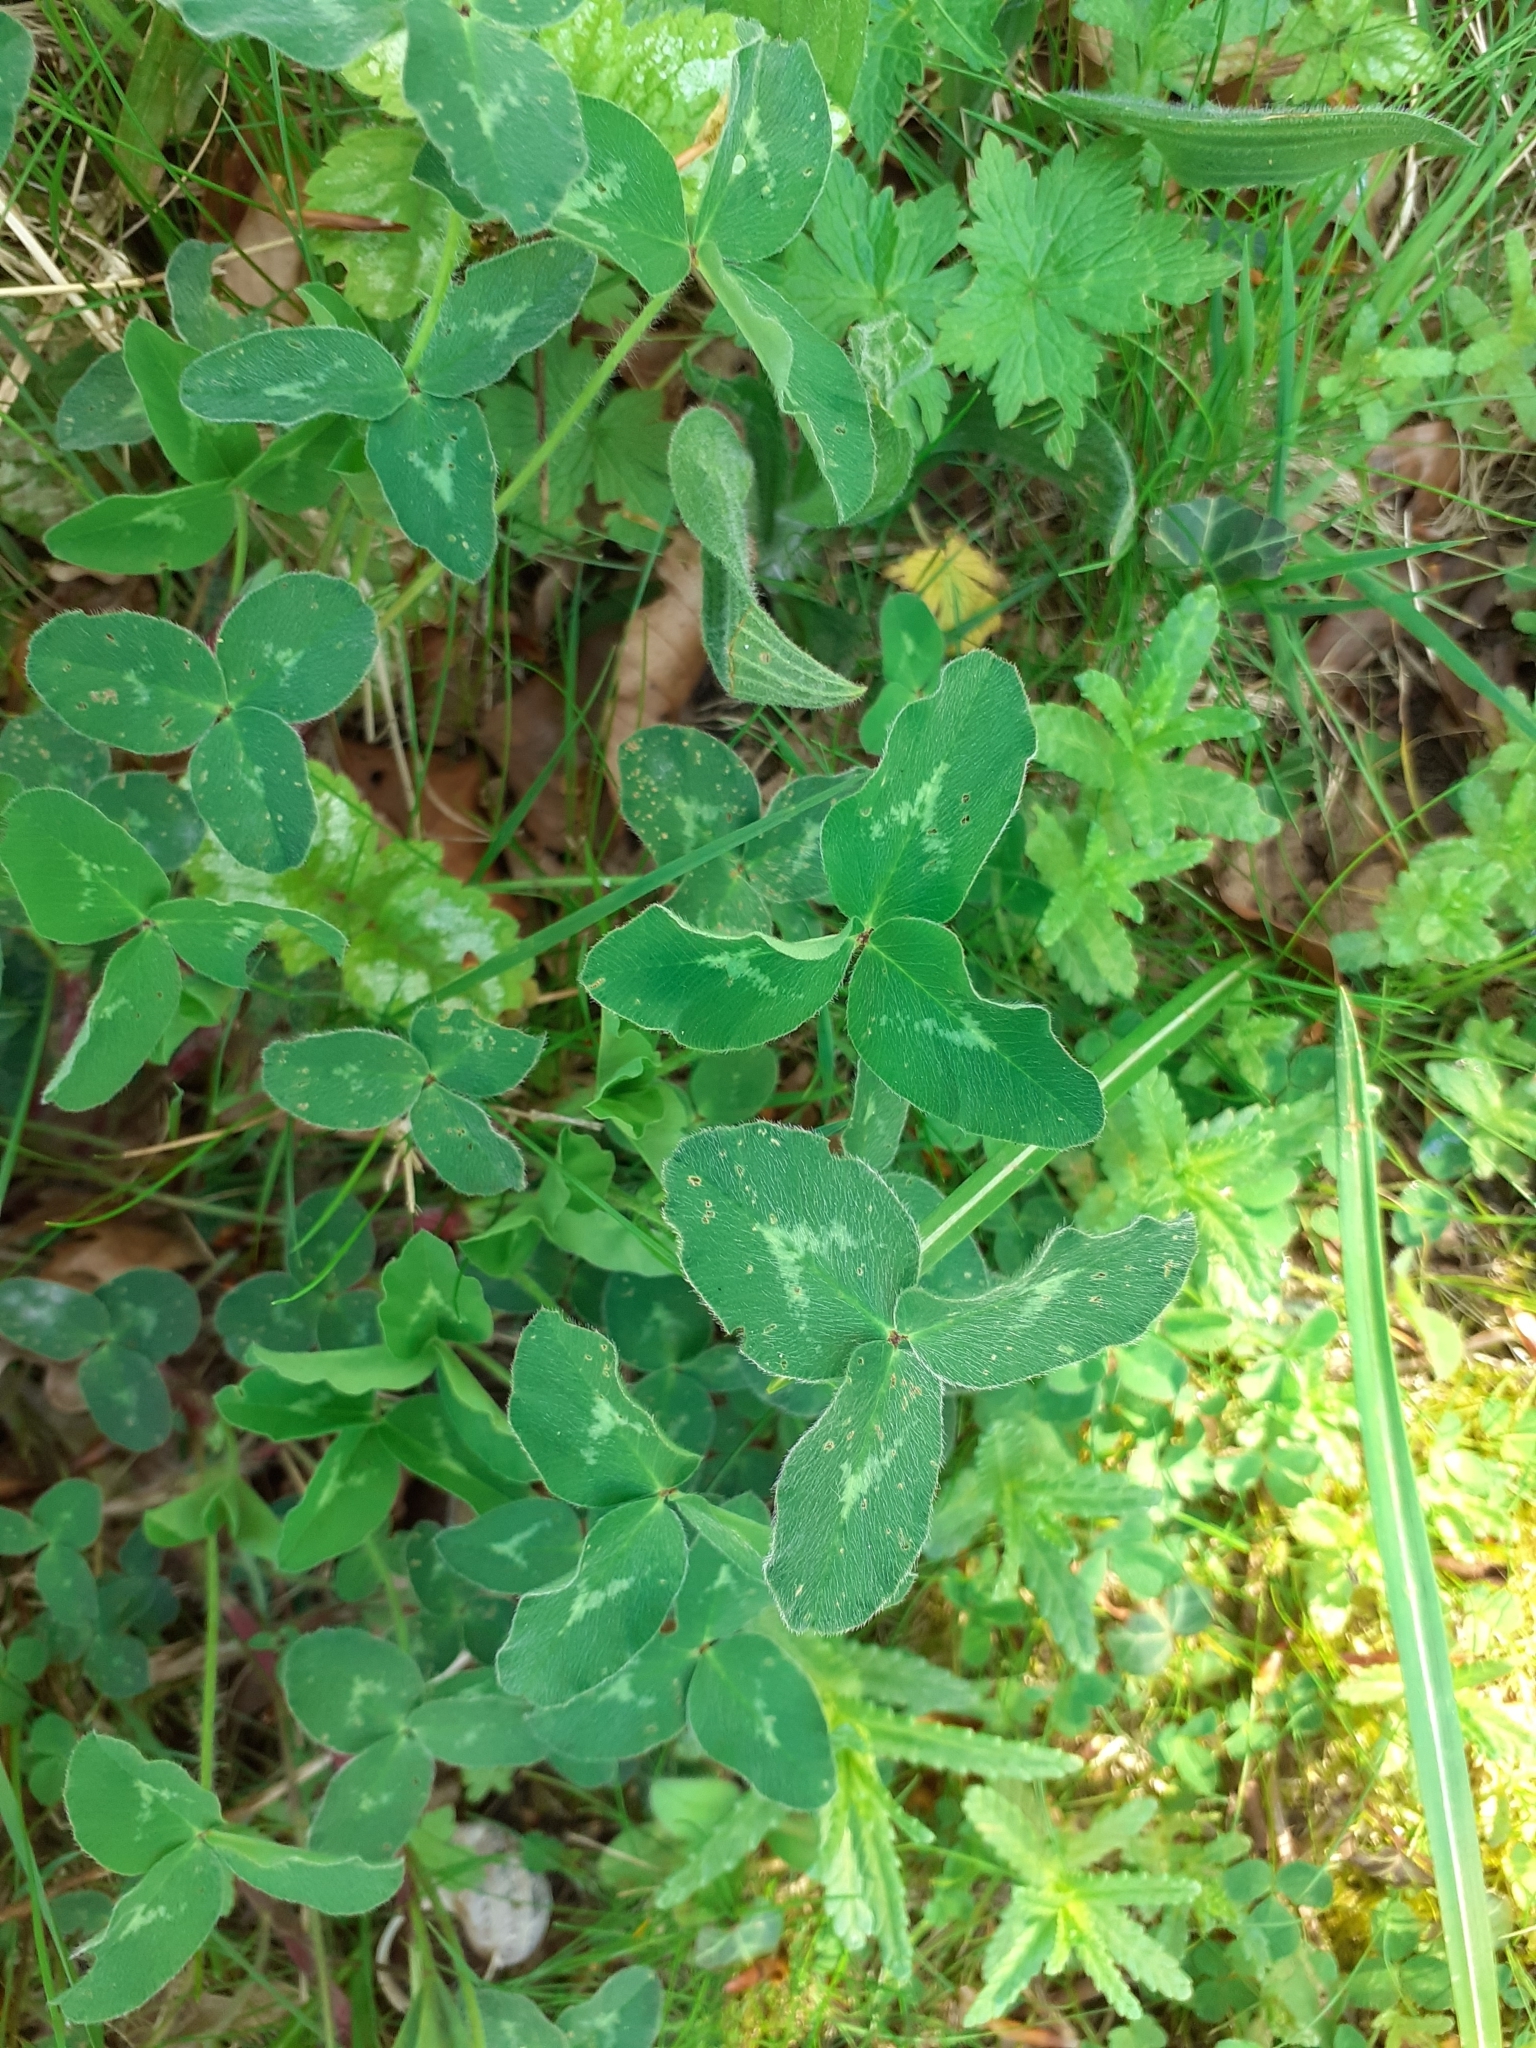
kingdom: Plantae
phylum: Tracheophyta
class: Magnoliopsida
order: Fabales
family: Fabaceae
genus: Trifolium
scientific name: Trifolium pratense
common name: Red clover
